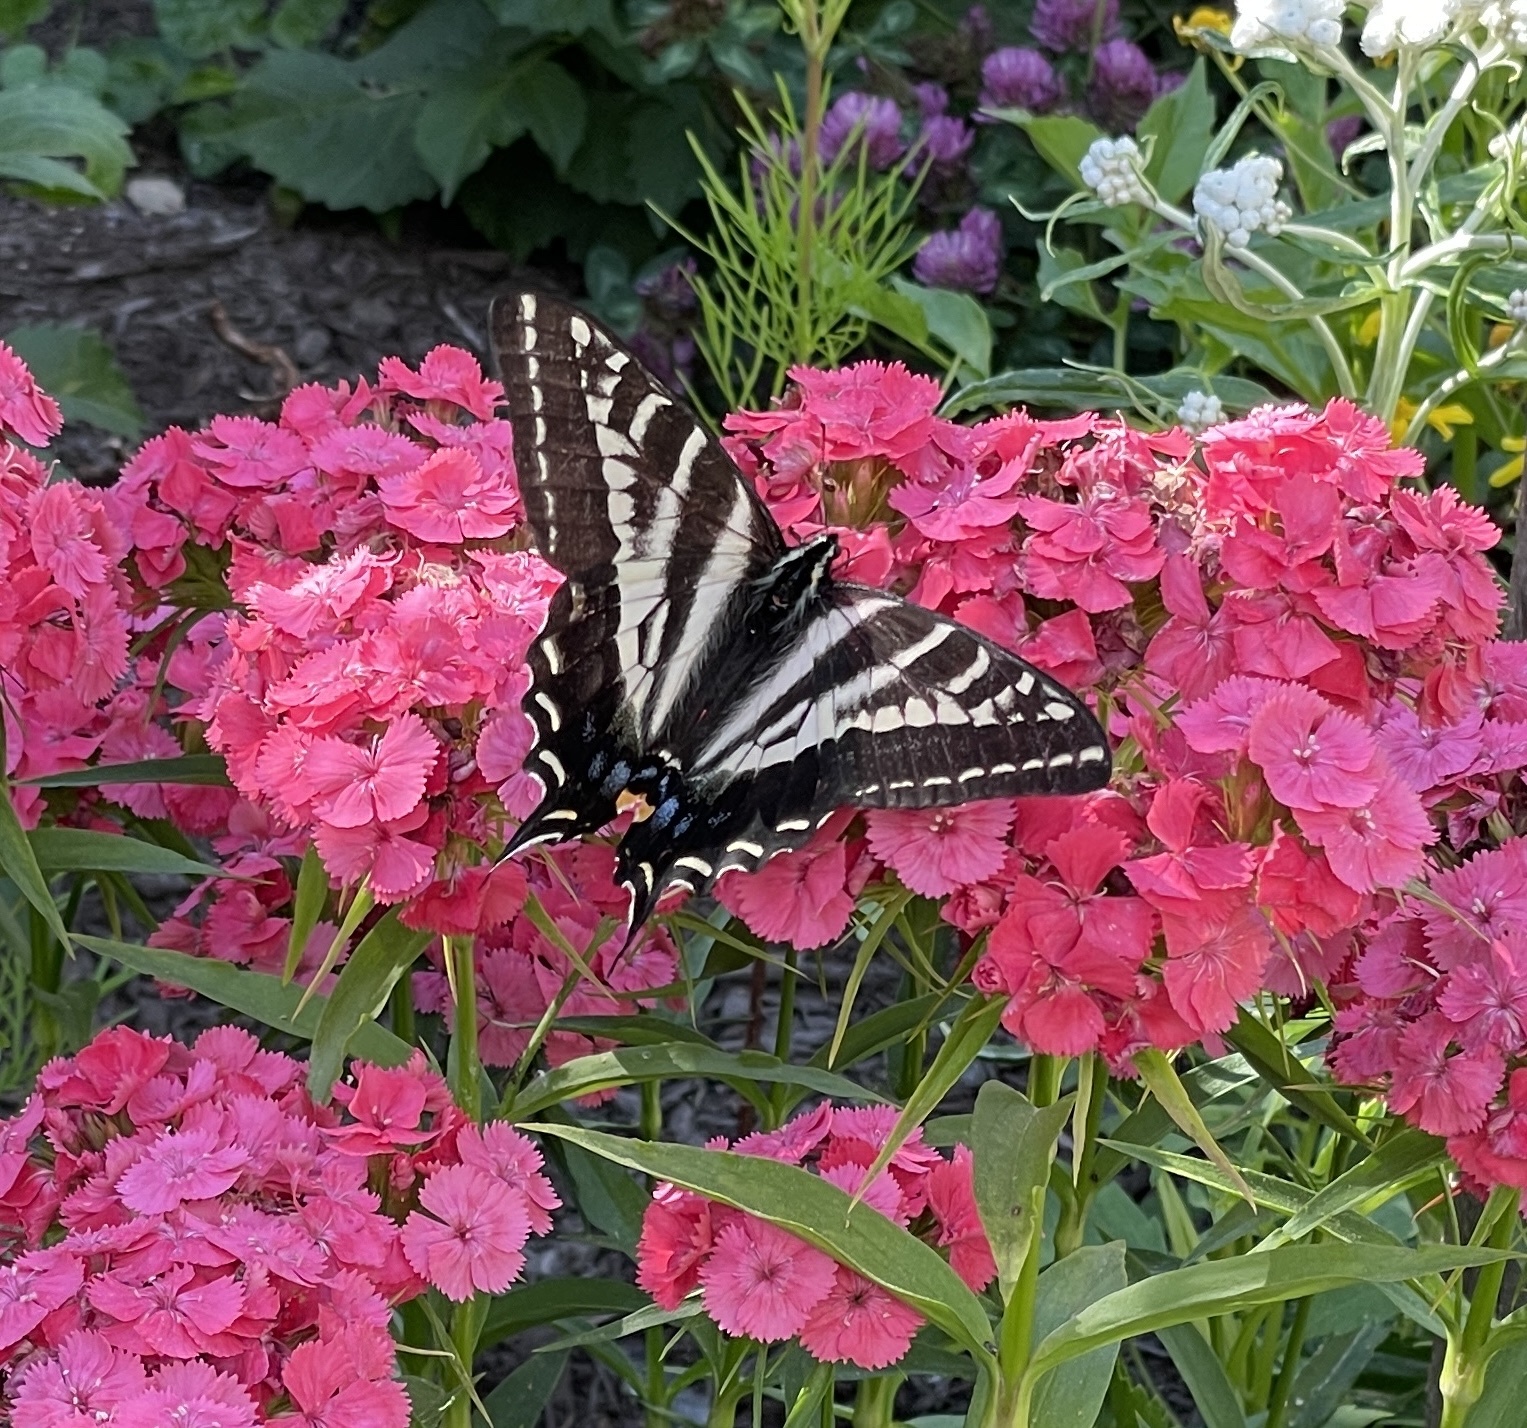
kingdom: Animalia
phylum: Arthropoda
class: Insecta
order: Lepidoptera
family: Papilionidae
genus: Papilio
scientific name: Papilio eurymedon
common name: Pale tiger swallowtail
